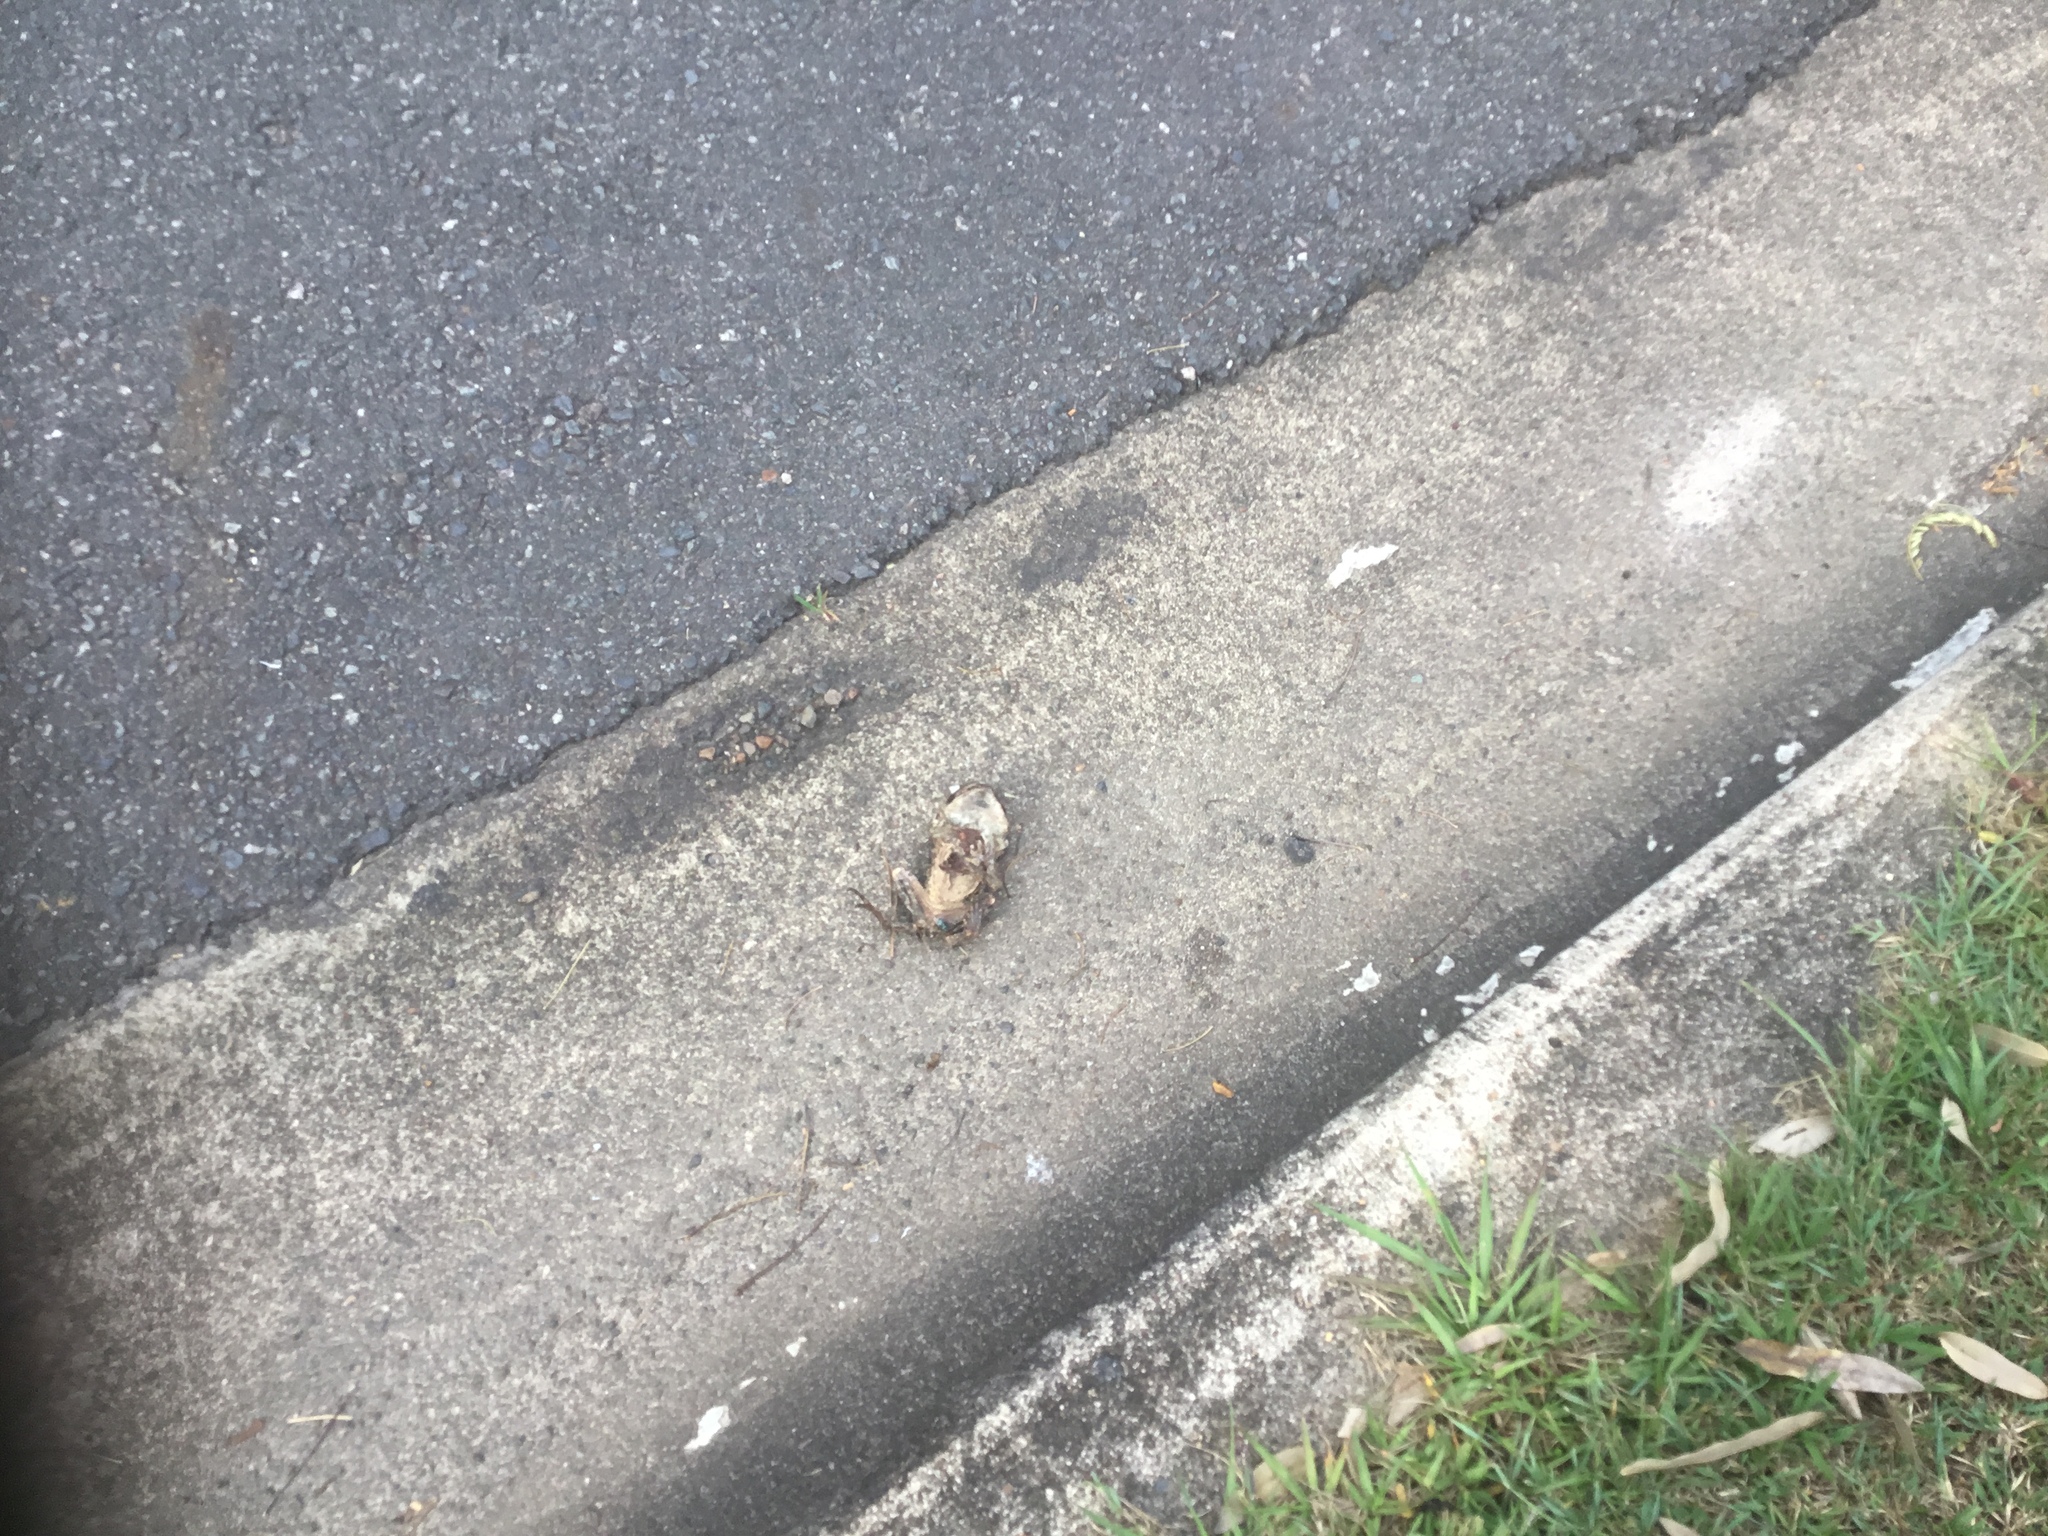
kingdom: Animalia
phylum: Chordata
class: Amphibia
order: Anura
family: Bufonidae
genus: Rhinella
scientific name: Rhinella marina
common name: Cane toad
